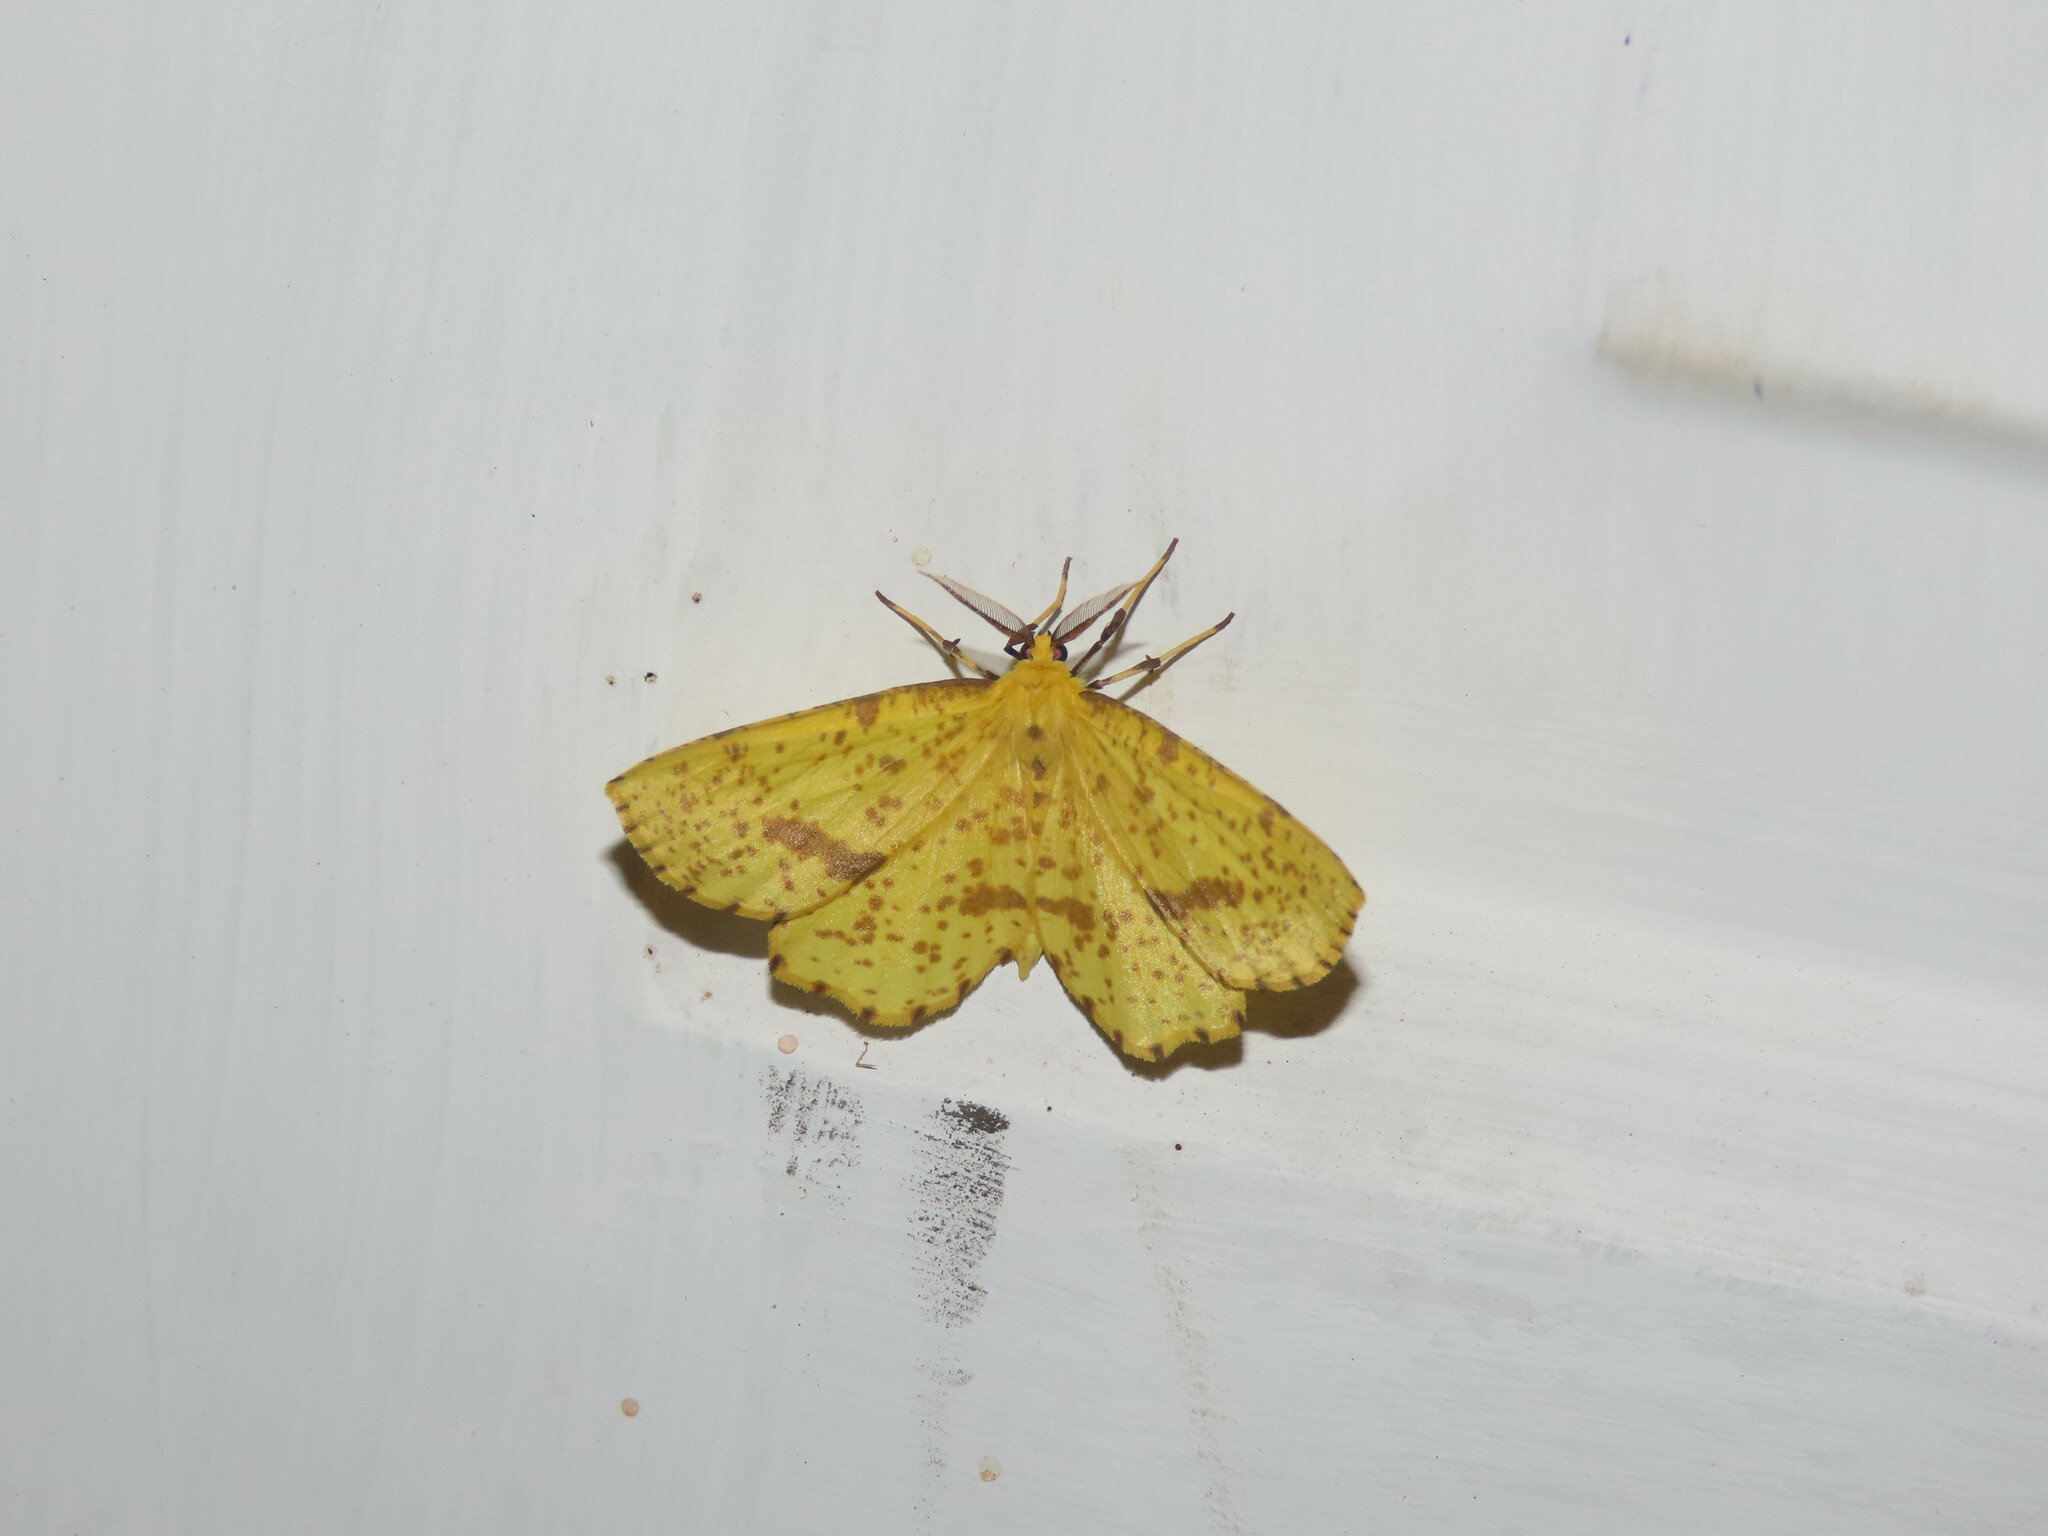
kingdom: Animalia
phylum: Arthropoda
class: Insecta
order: Lepidoptera
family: Geometridae
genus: Xanthotype
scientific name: Xanthotype
